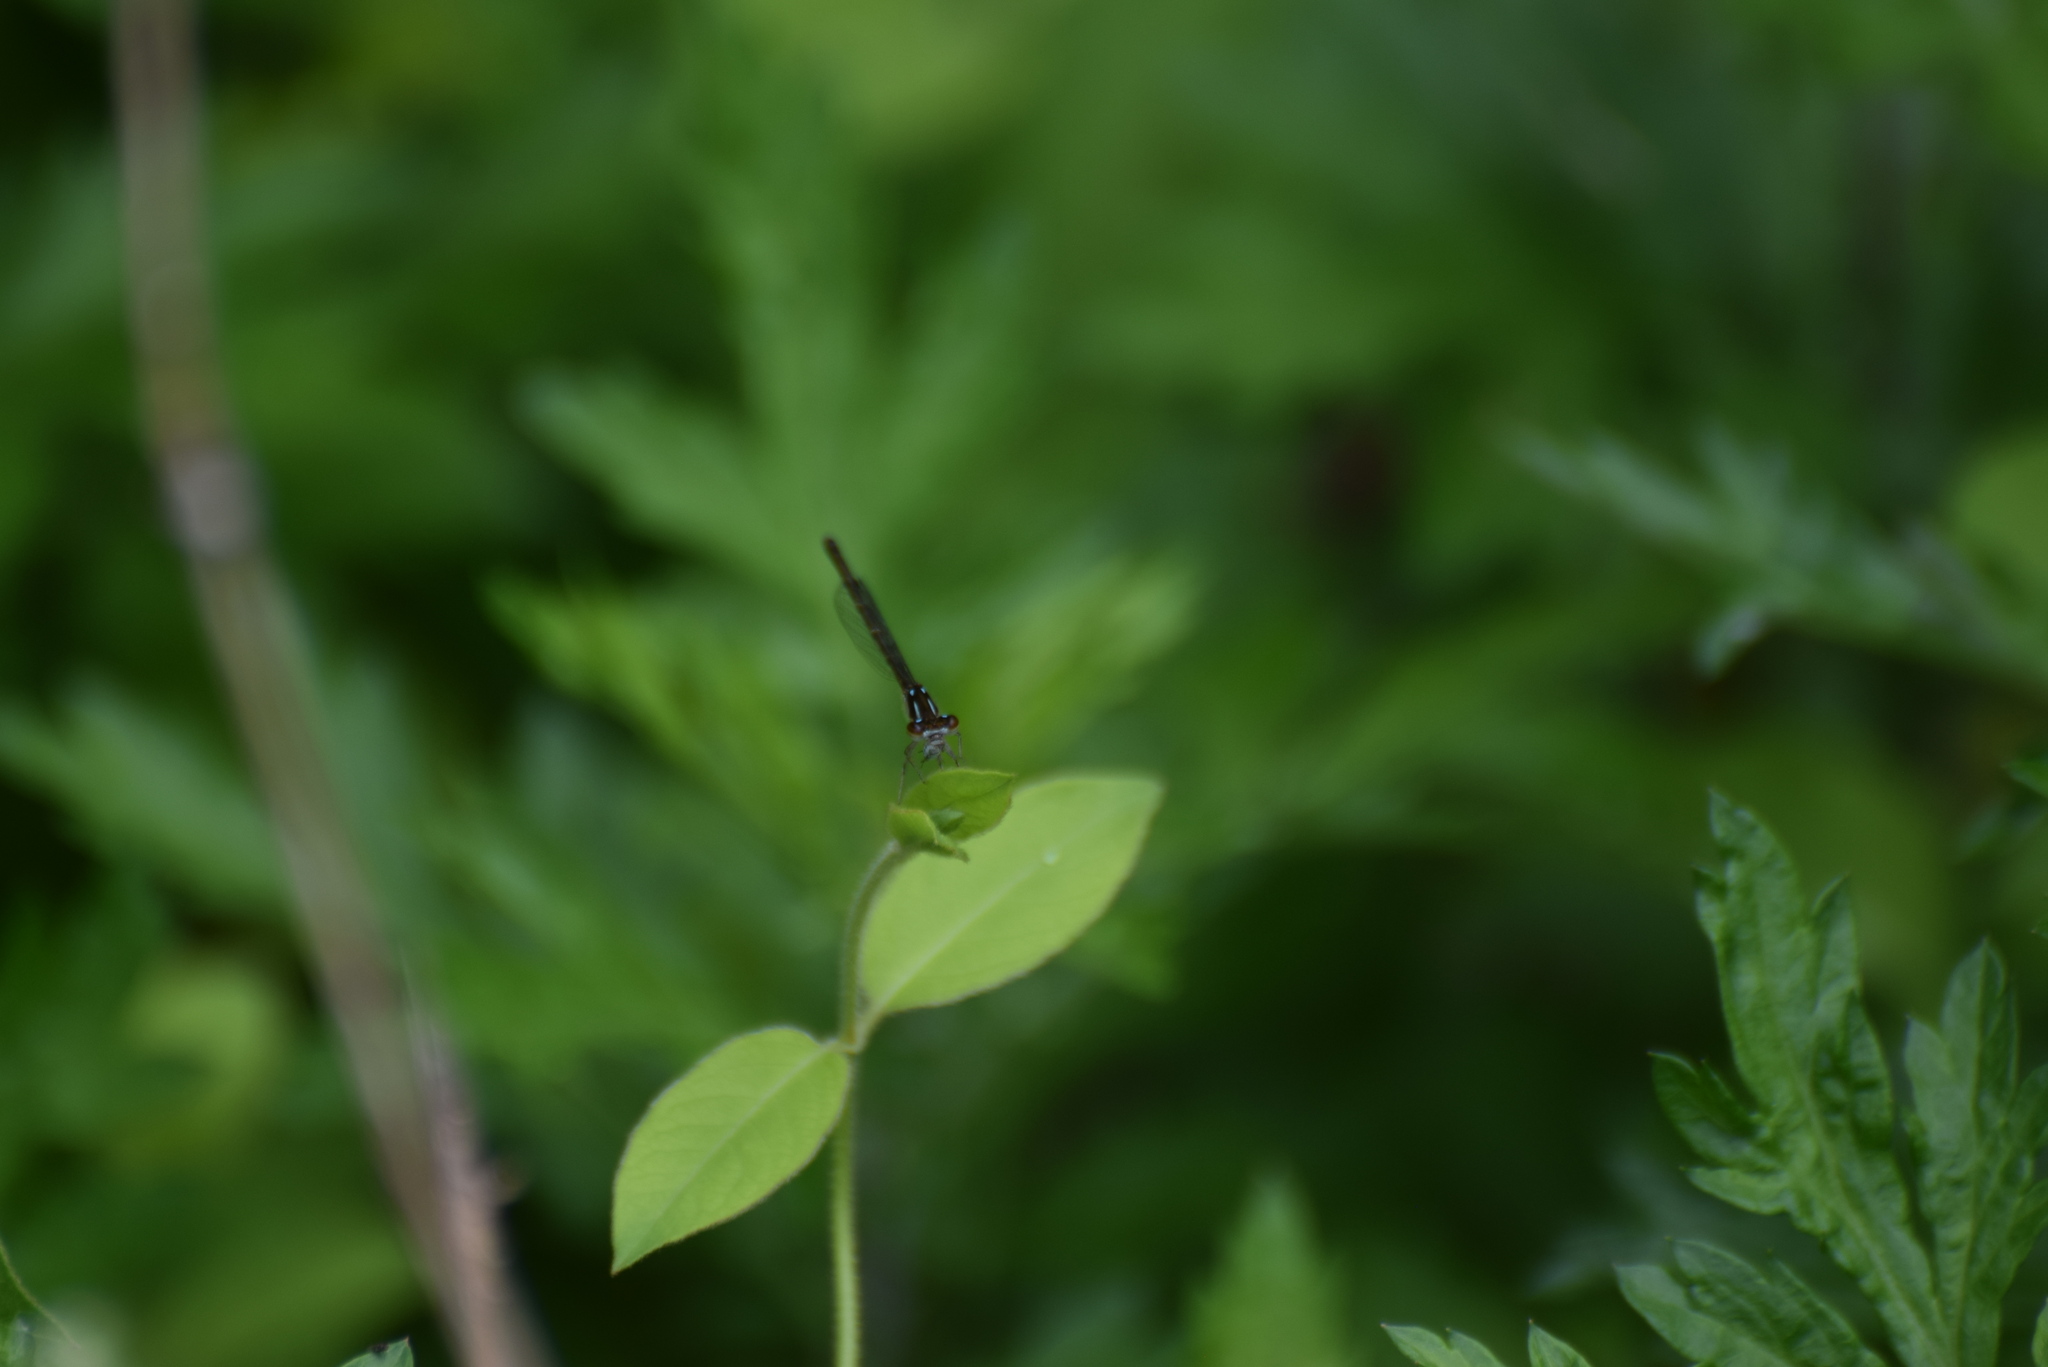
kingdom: Animalia
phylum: Arthropoda
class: Insecta
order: Odonata
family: Coenagrionidae
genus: Ischnura
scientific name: Ischnura posita
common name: Fragile forktail
